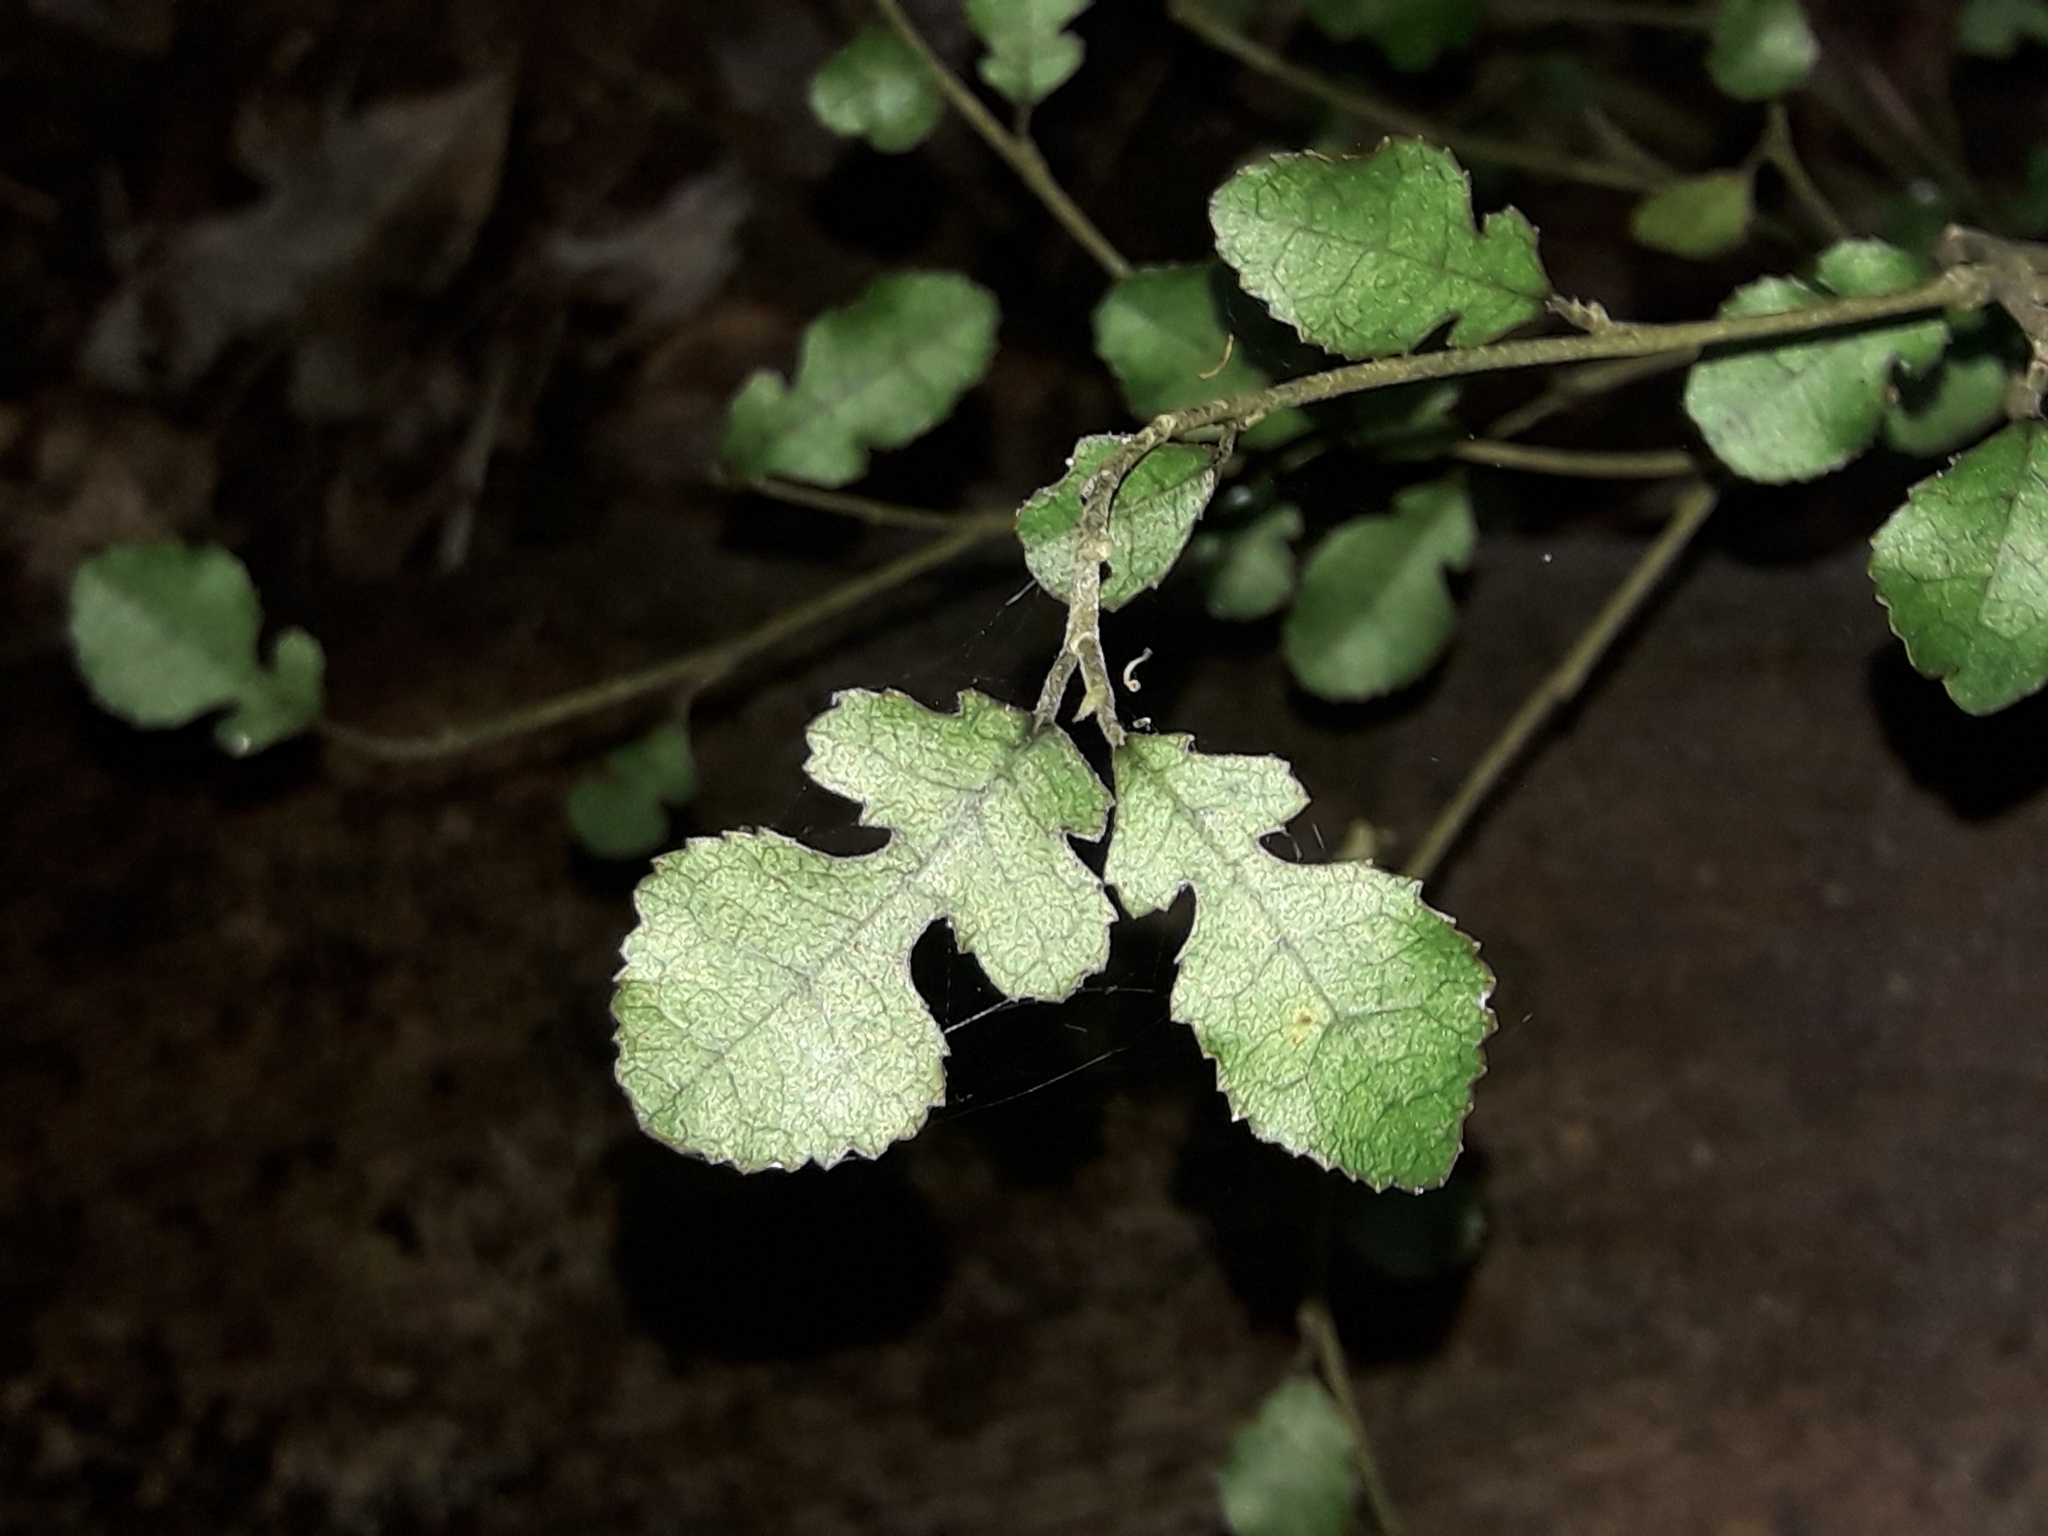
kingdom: Plantae
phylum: Tracheophyta
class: Magnoliopsida
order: Rosales
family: Moraceae
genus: Paratrophis
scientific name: Paratrophis microphylla
